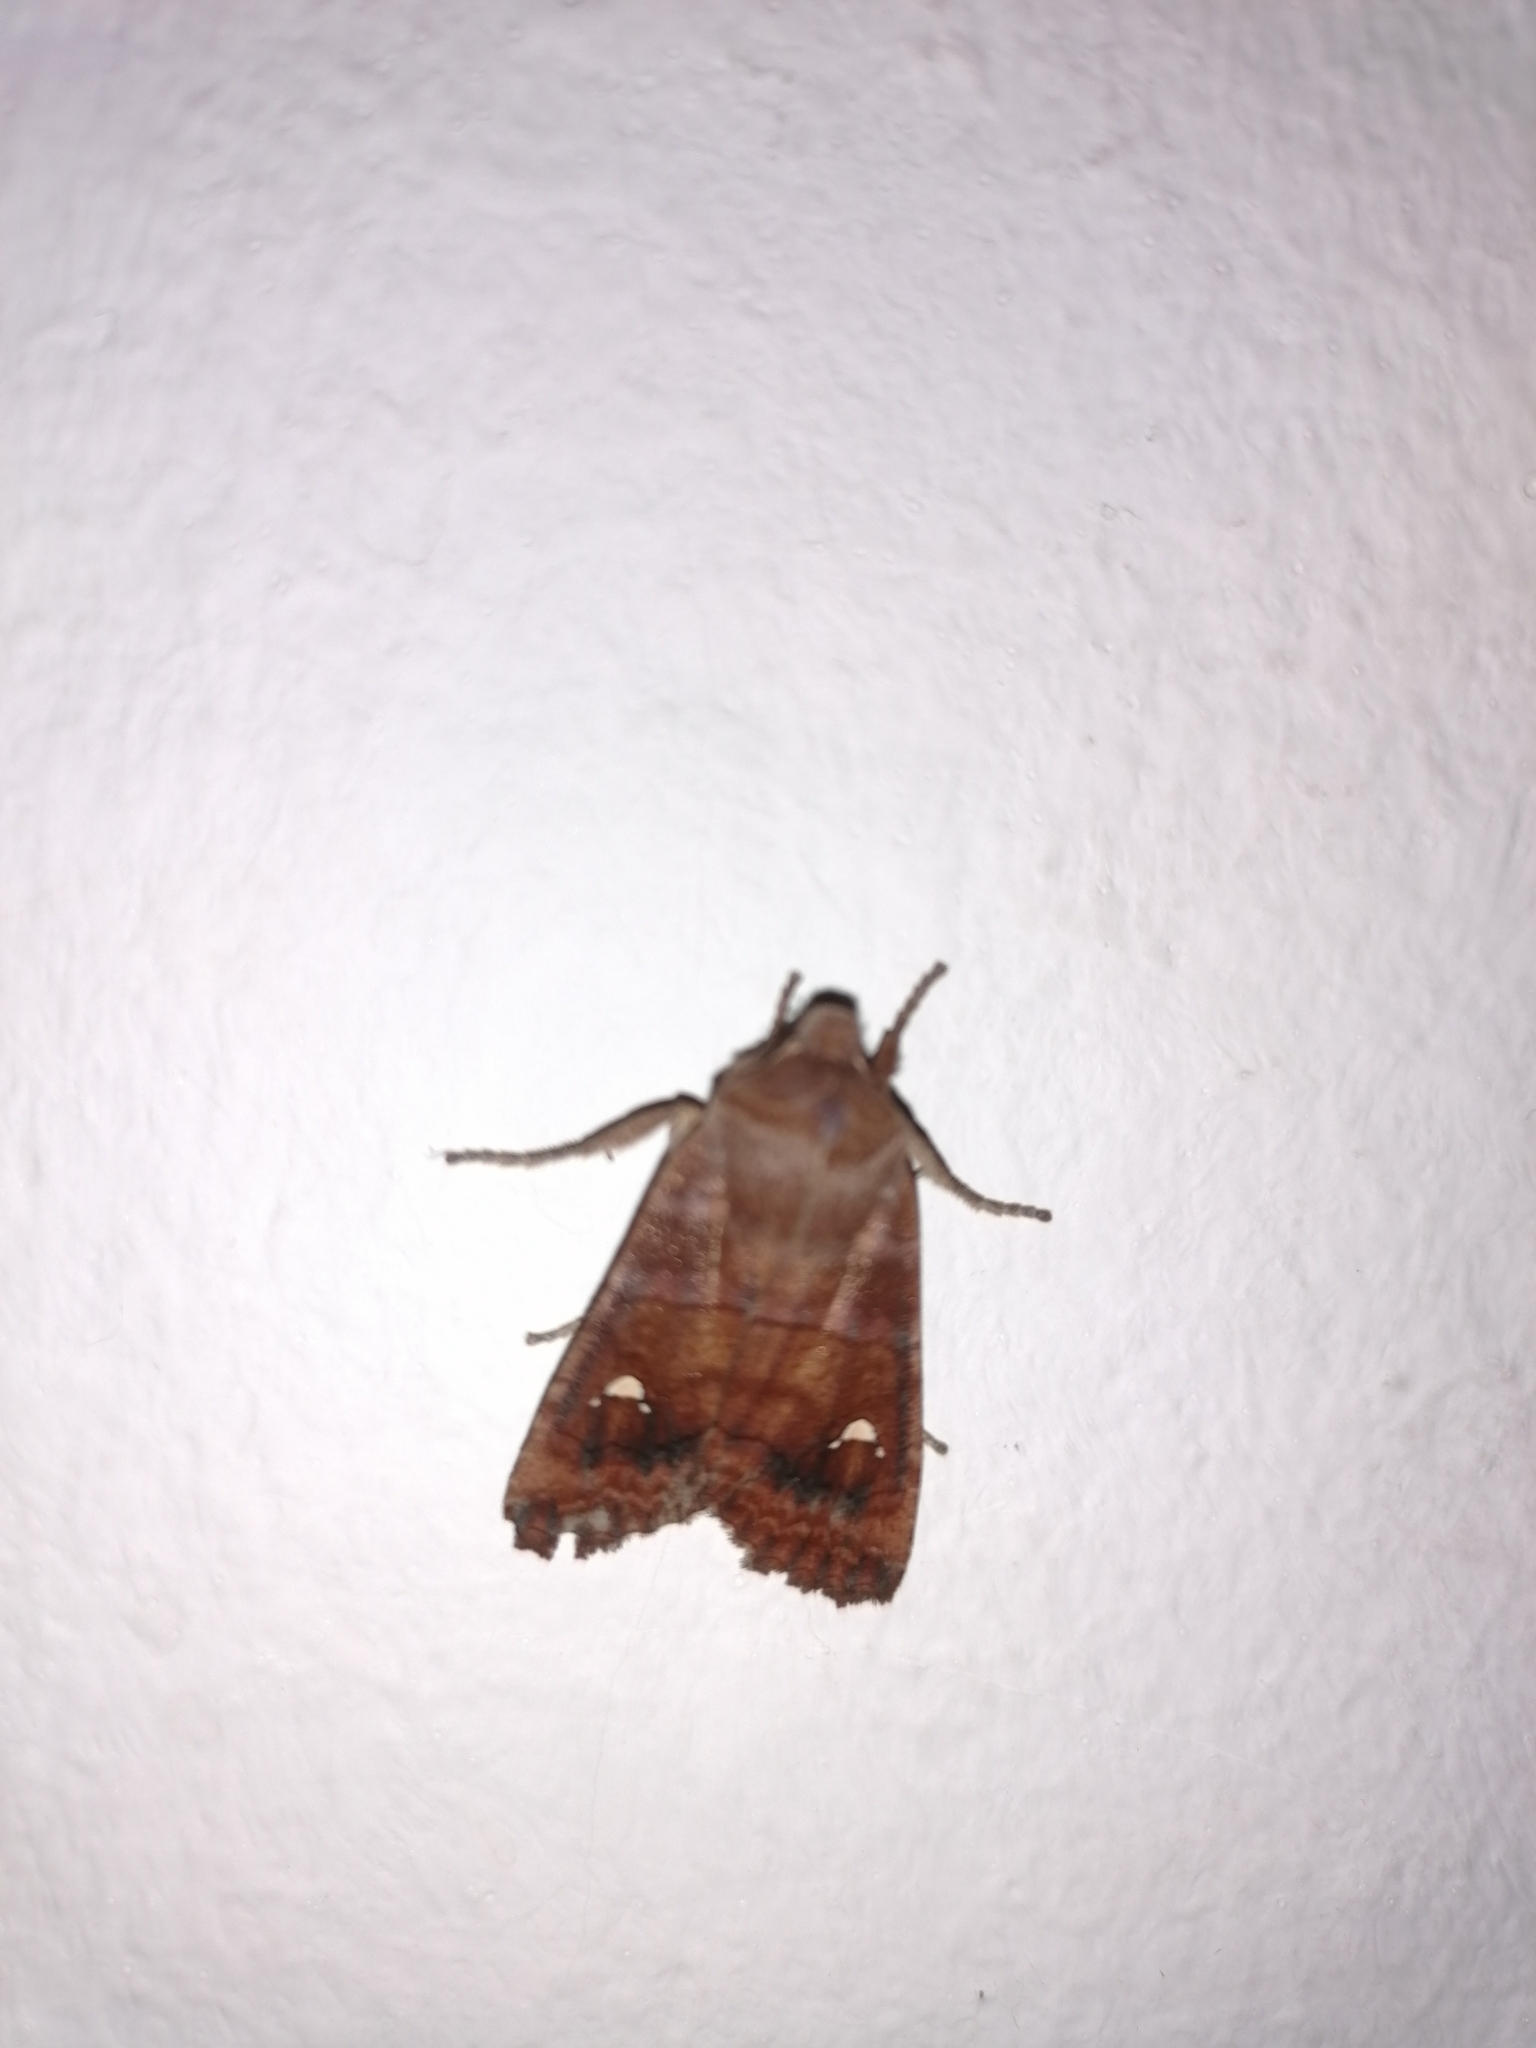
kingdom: Animalia
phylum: Arthropoda
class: Insecta
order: Lepidoptera
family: Noctuidae
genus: Eupsilia
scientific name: Eupsilia transversa
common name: Satellite
